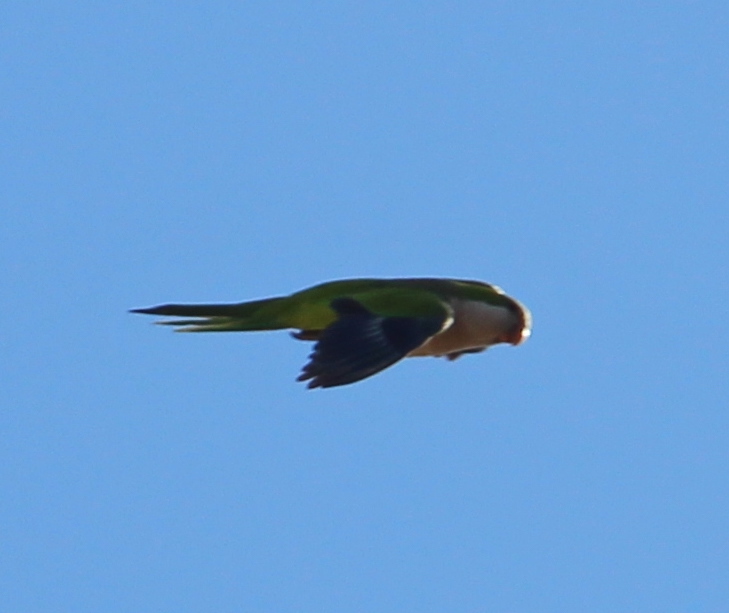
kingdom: Animalia
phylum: Chordata
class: Aves
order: Psittaciformes
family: Psittacidae
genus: Myiopsitta
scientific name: Myiopsitta monachus
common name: Monk parakeet
